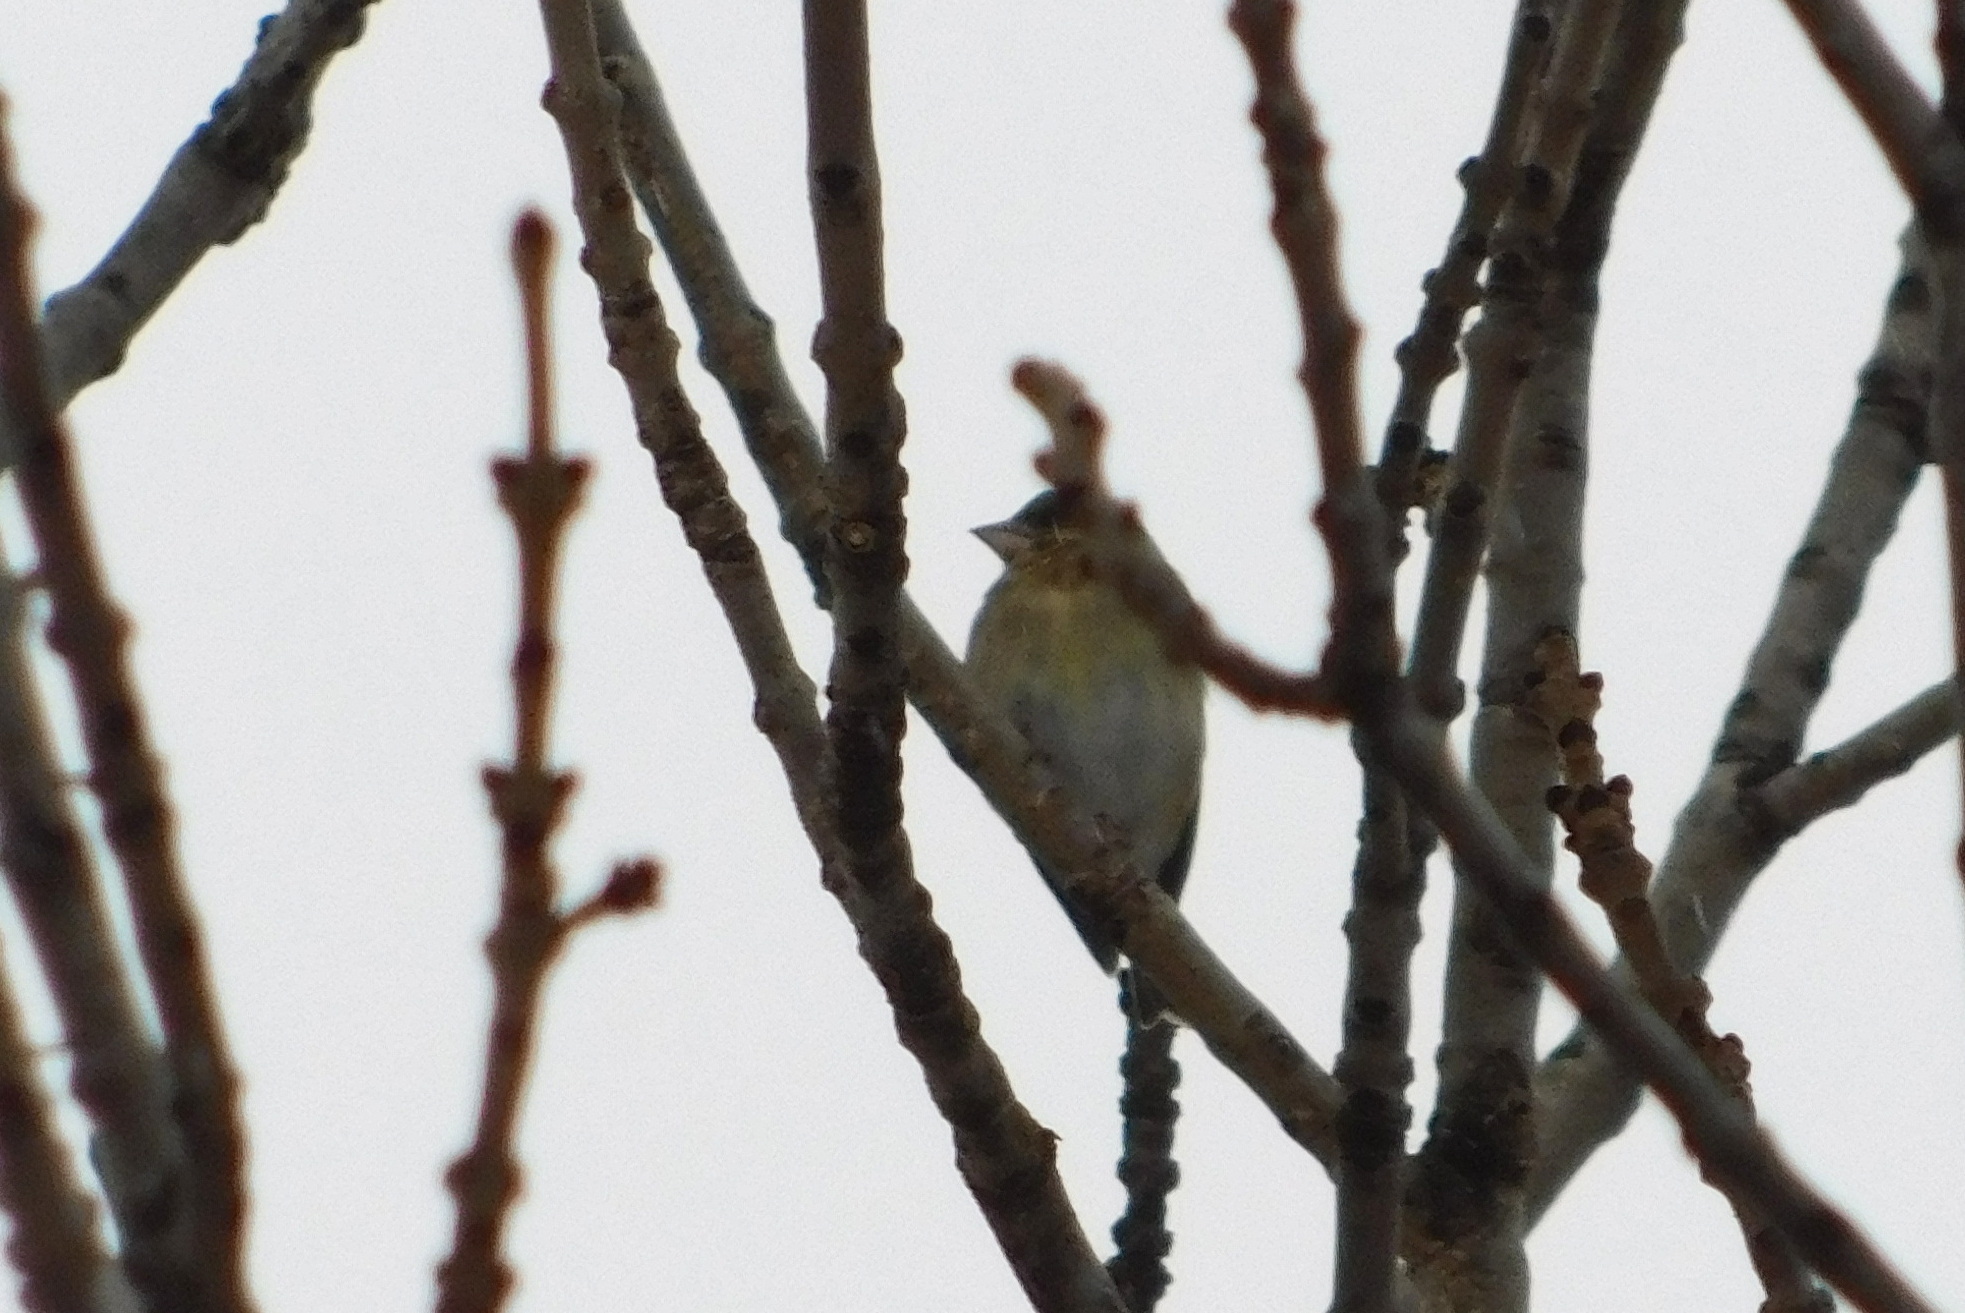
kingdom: Plantae
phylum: Tracheophyta
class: Liliopsida
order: Poales
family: Poaceae
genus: Chloris
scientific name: Chloris chloris
